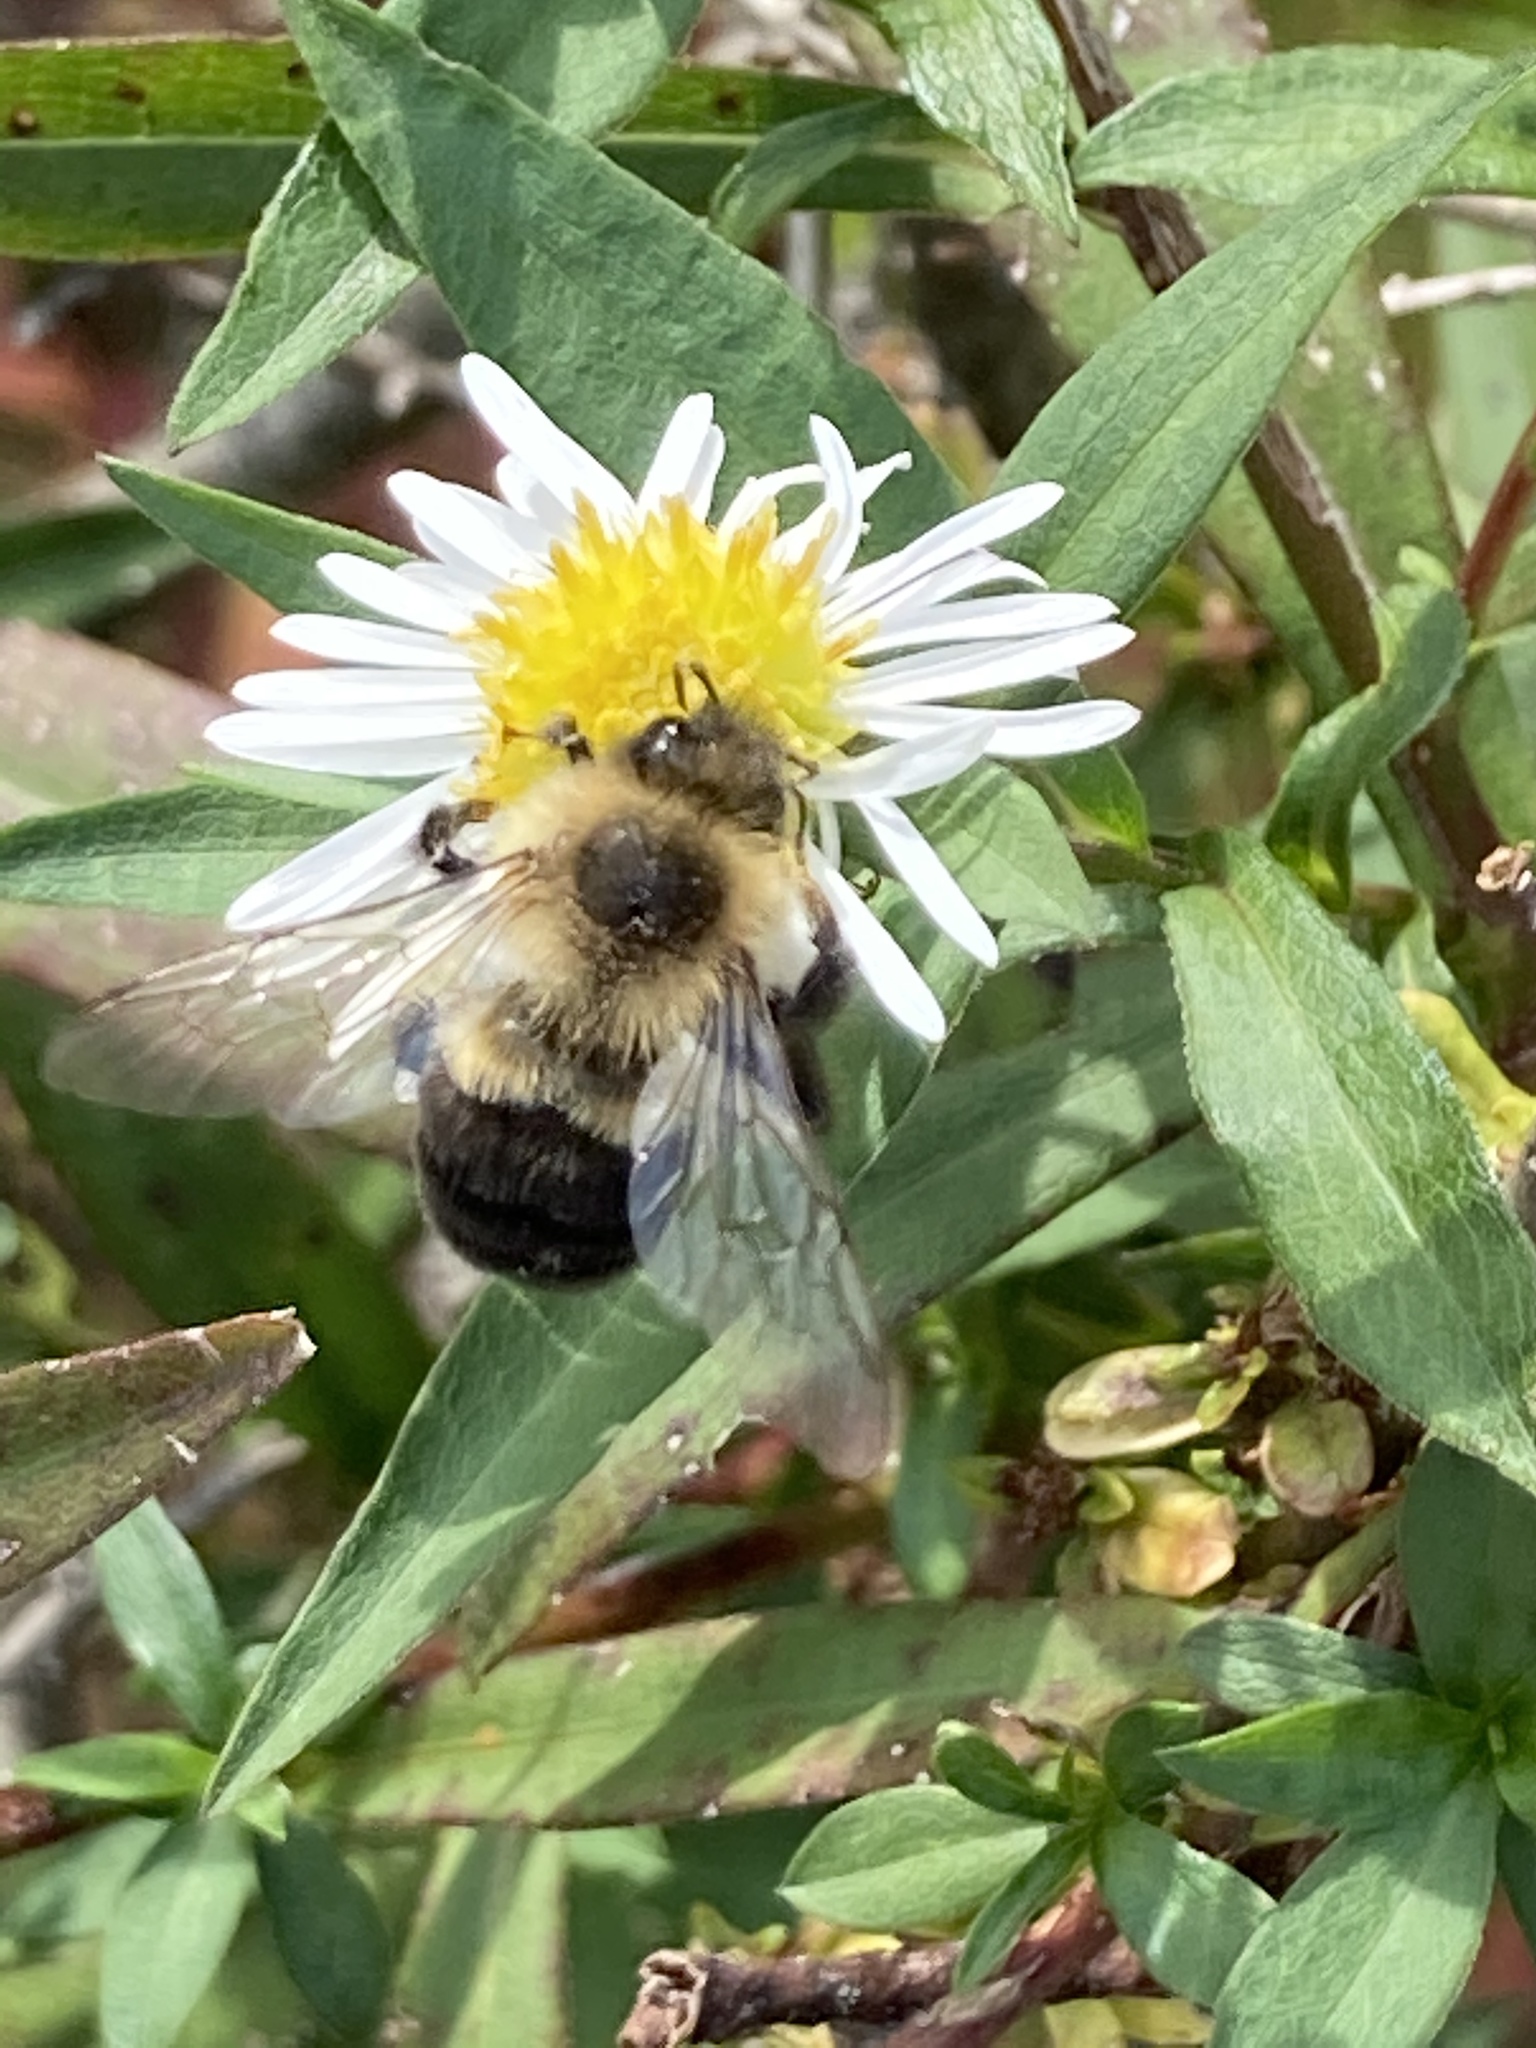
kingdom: Animalia
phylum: Arthropoda
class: Insecta
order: Hymenoptera
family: Apidae
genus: Bombus
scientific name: Bombus impatiens
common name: Common eastern bumble bee
